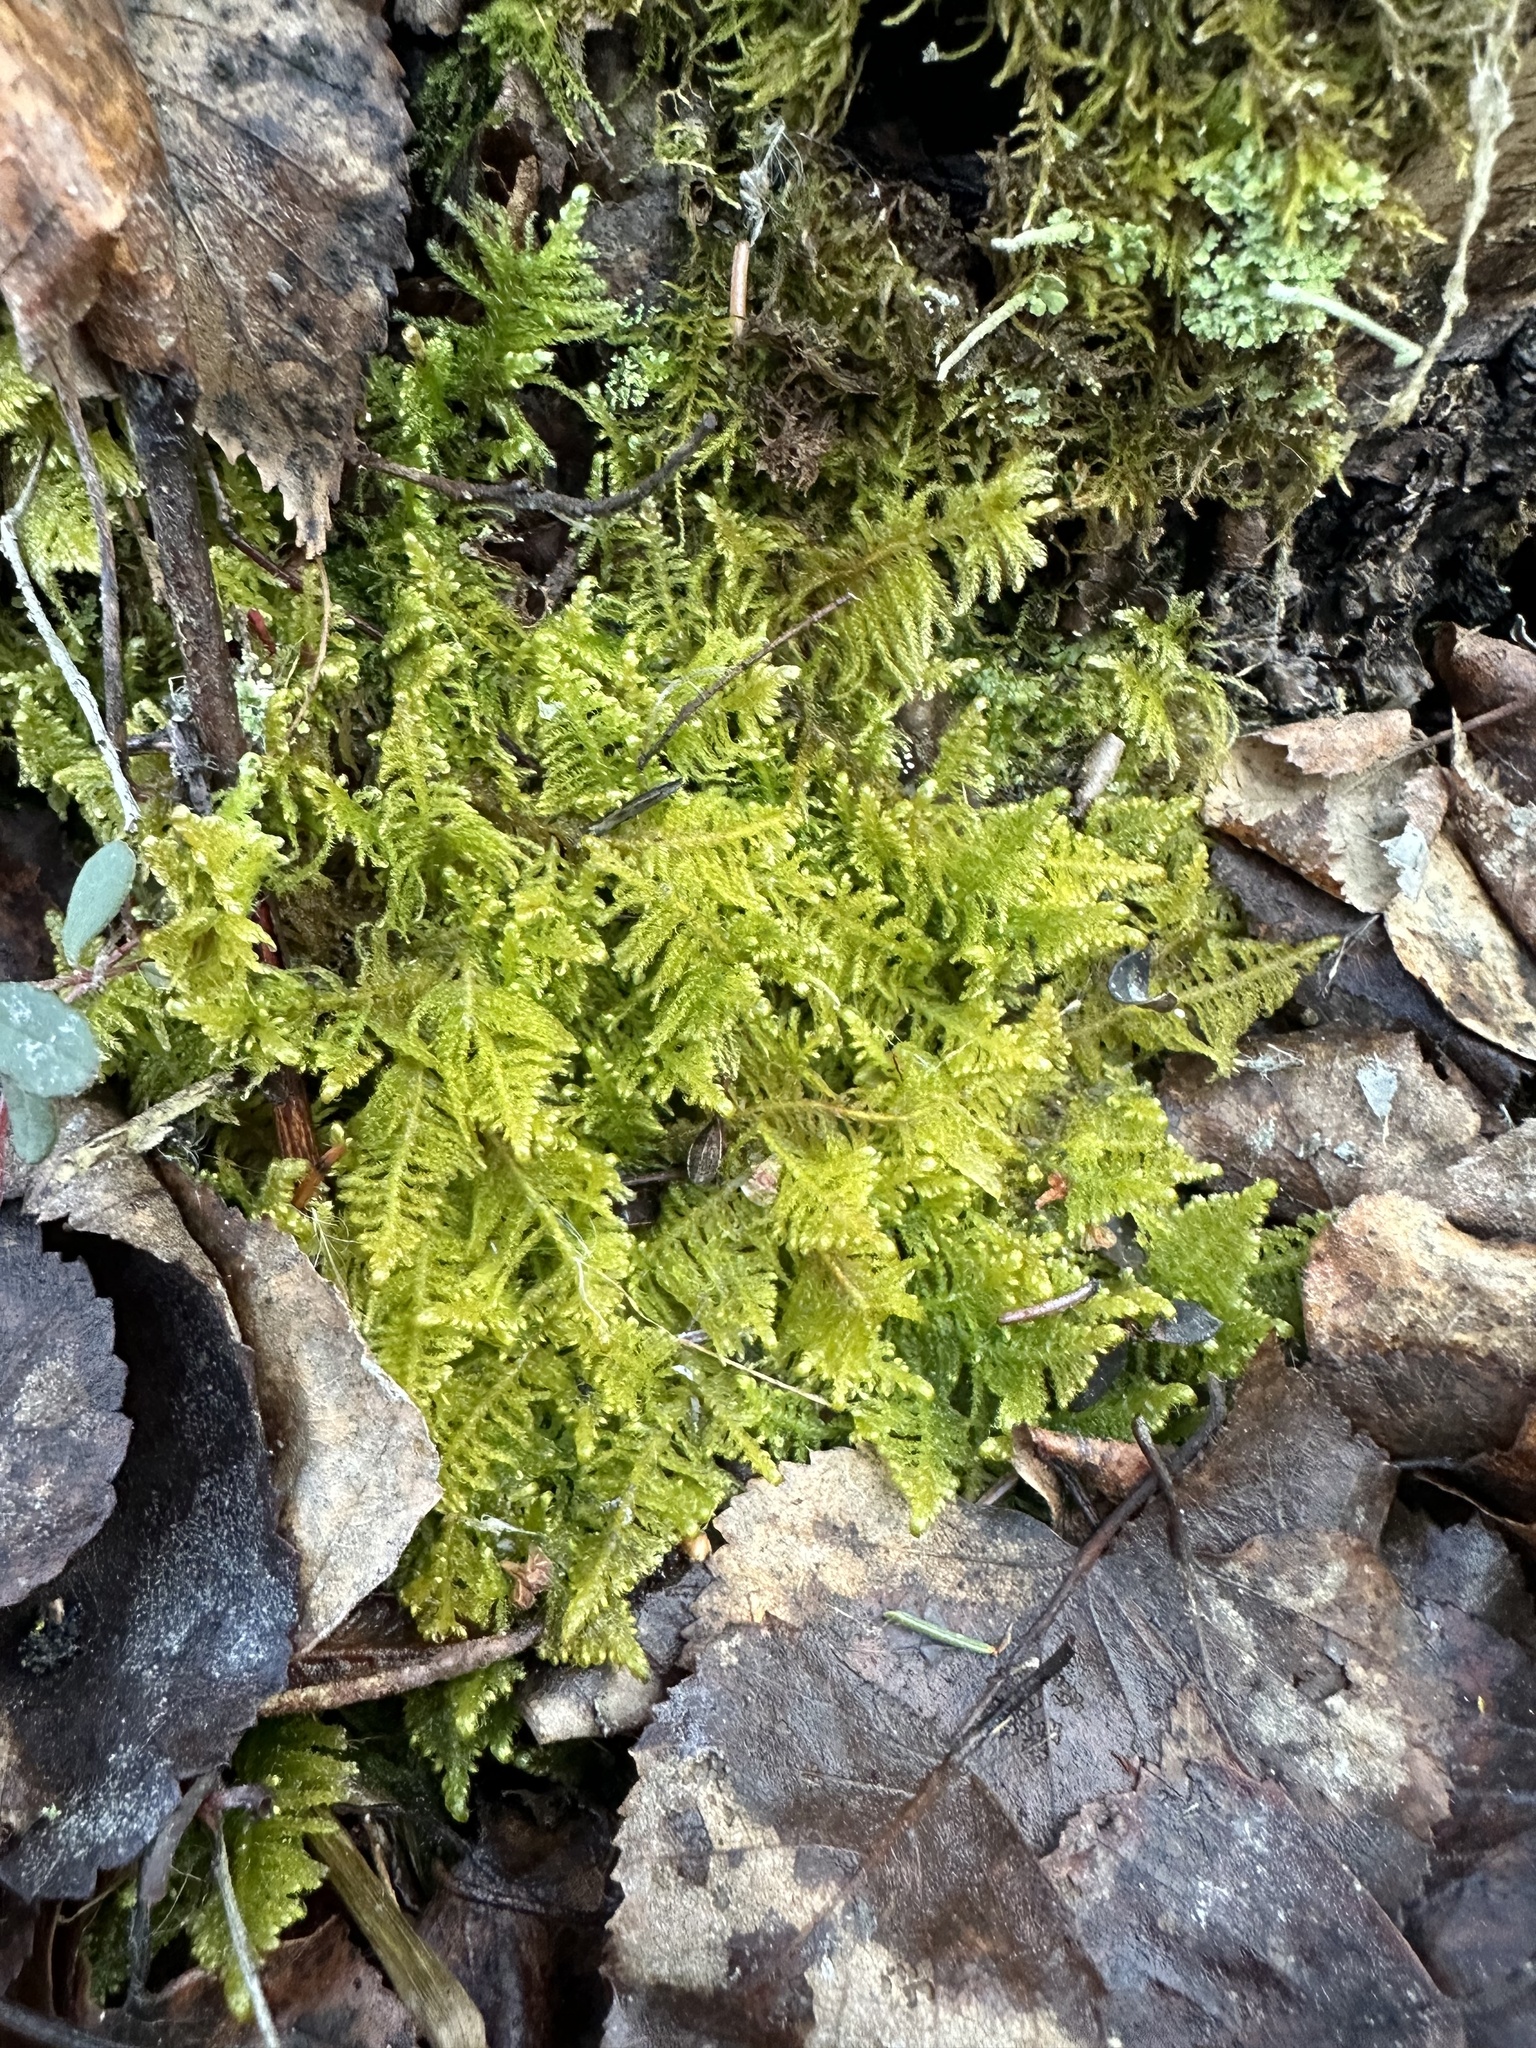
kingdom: Plantae
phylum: Bryophyta
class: Bryopsida
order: Hypnales
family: Pylaisiaceae
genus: Ptilium
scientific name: Ptilium crista-castrensis
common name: Knight's plume moss
